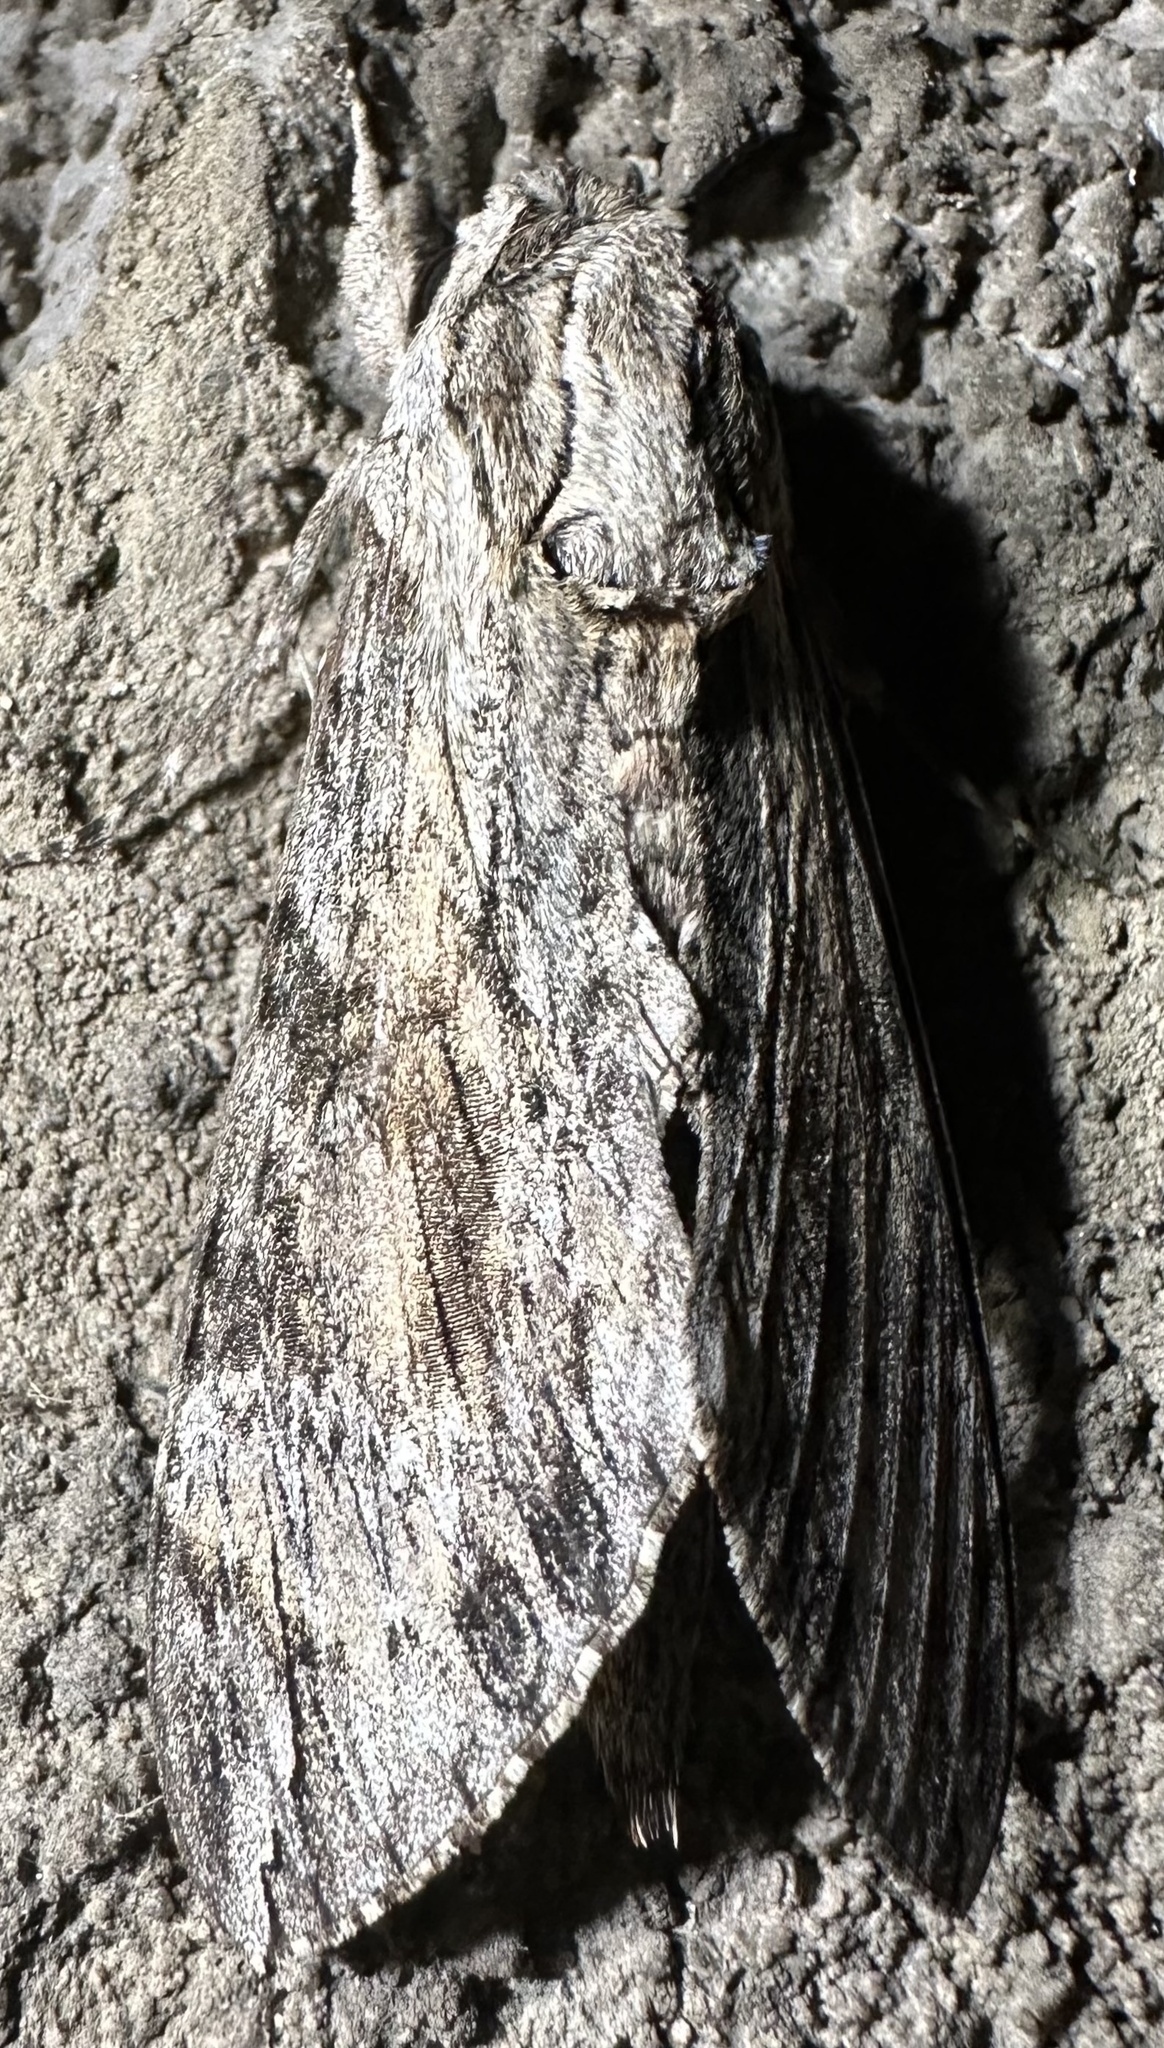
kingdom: Animalia
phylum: Arthropoda
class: Insecta
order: Lepidoptera
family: Sphingidae
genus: Agrius
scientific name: Agrius convolvuli
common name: Convolvulus hawkmoth
